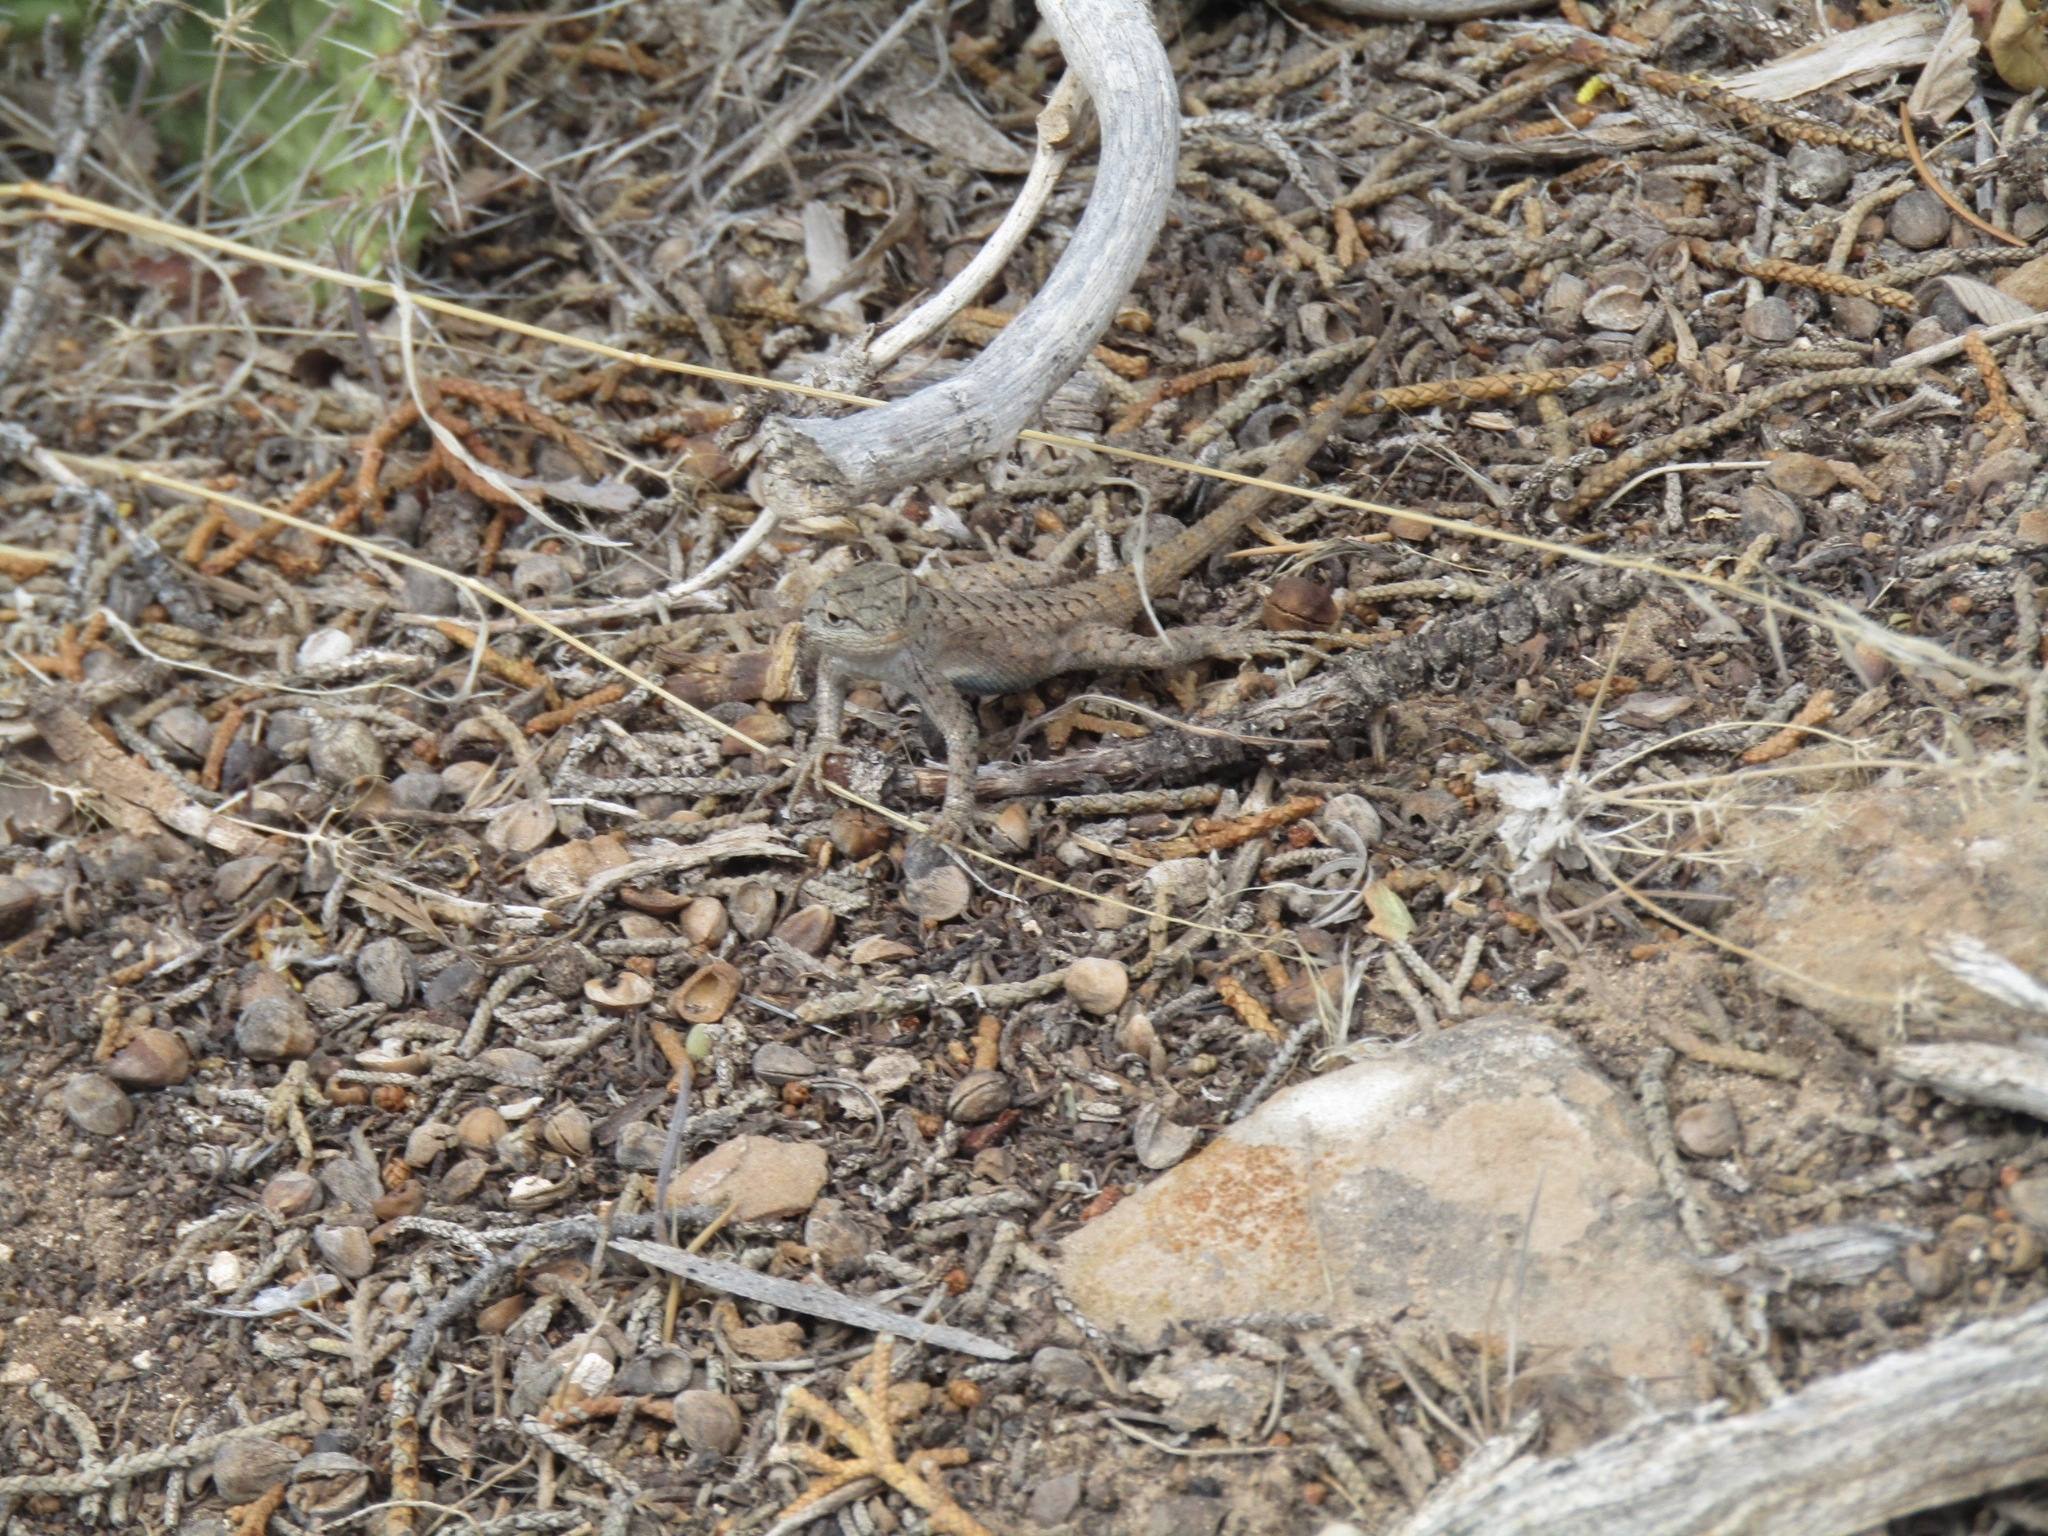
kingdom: Animalia
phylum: Chordata
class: Squamata
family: Phrynosomatidae
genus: Sceloporus
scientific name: Sceloporus graciosus
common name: Sagebrush lizard
